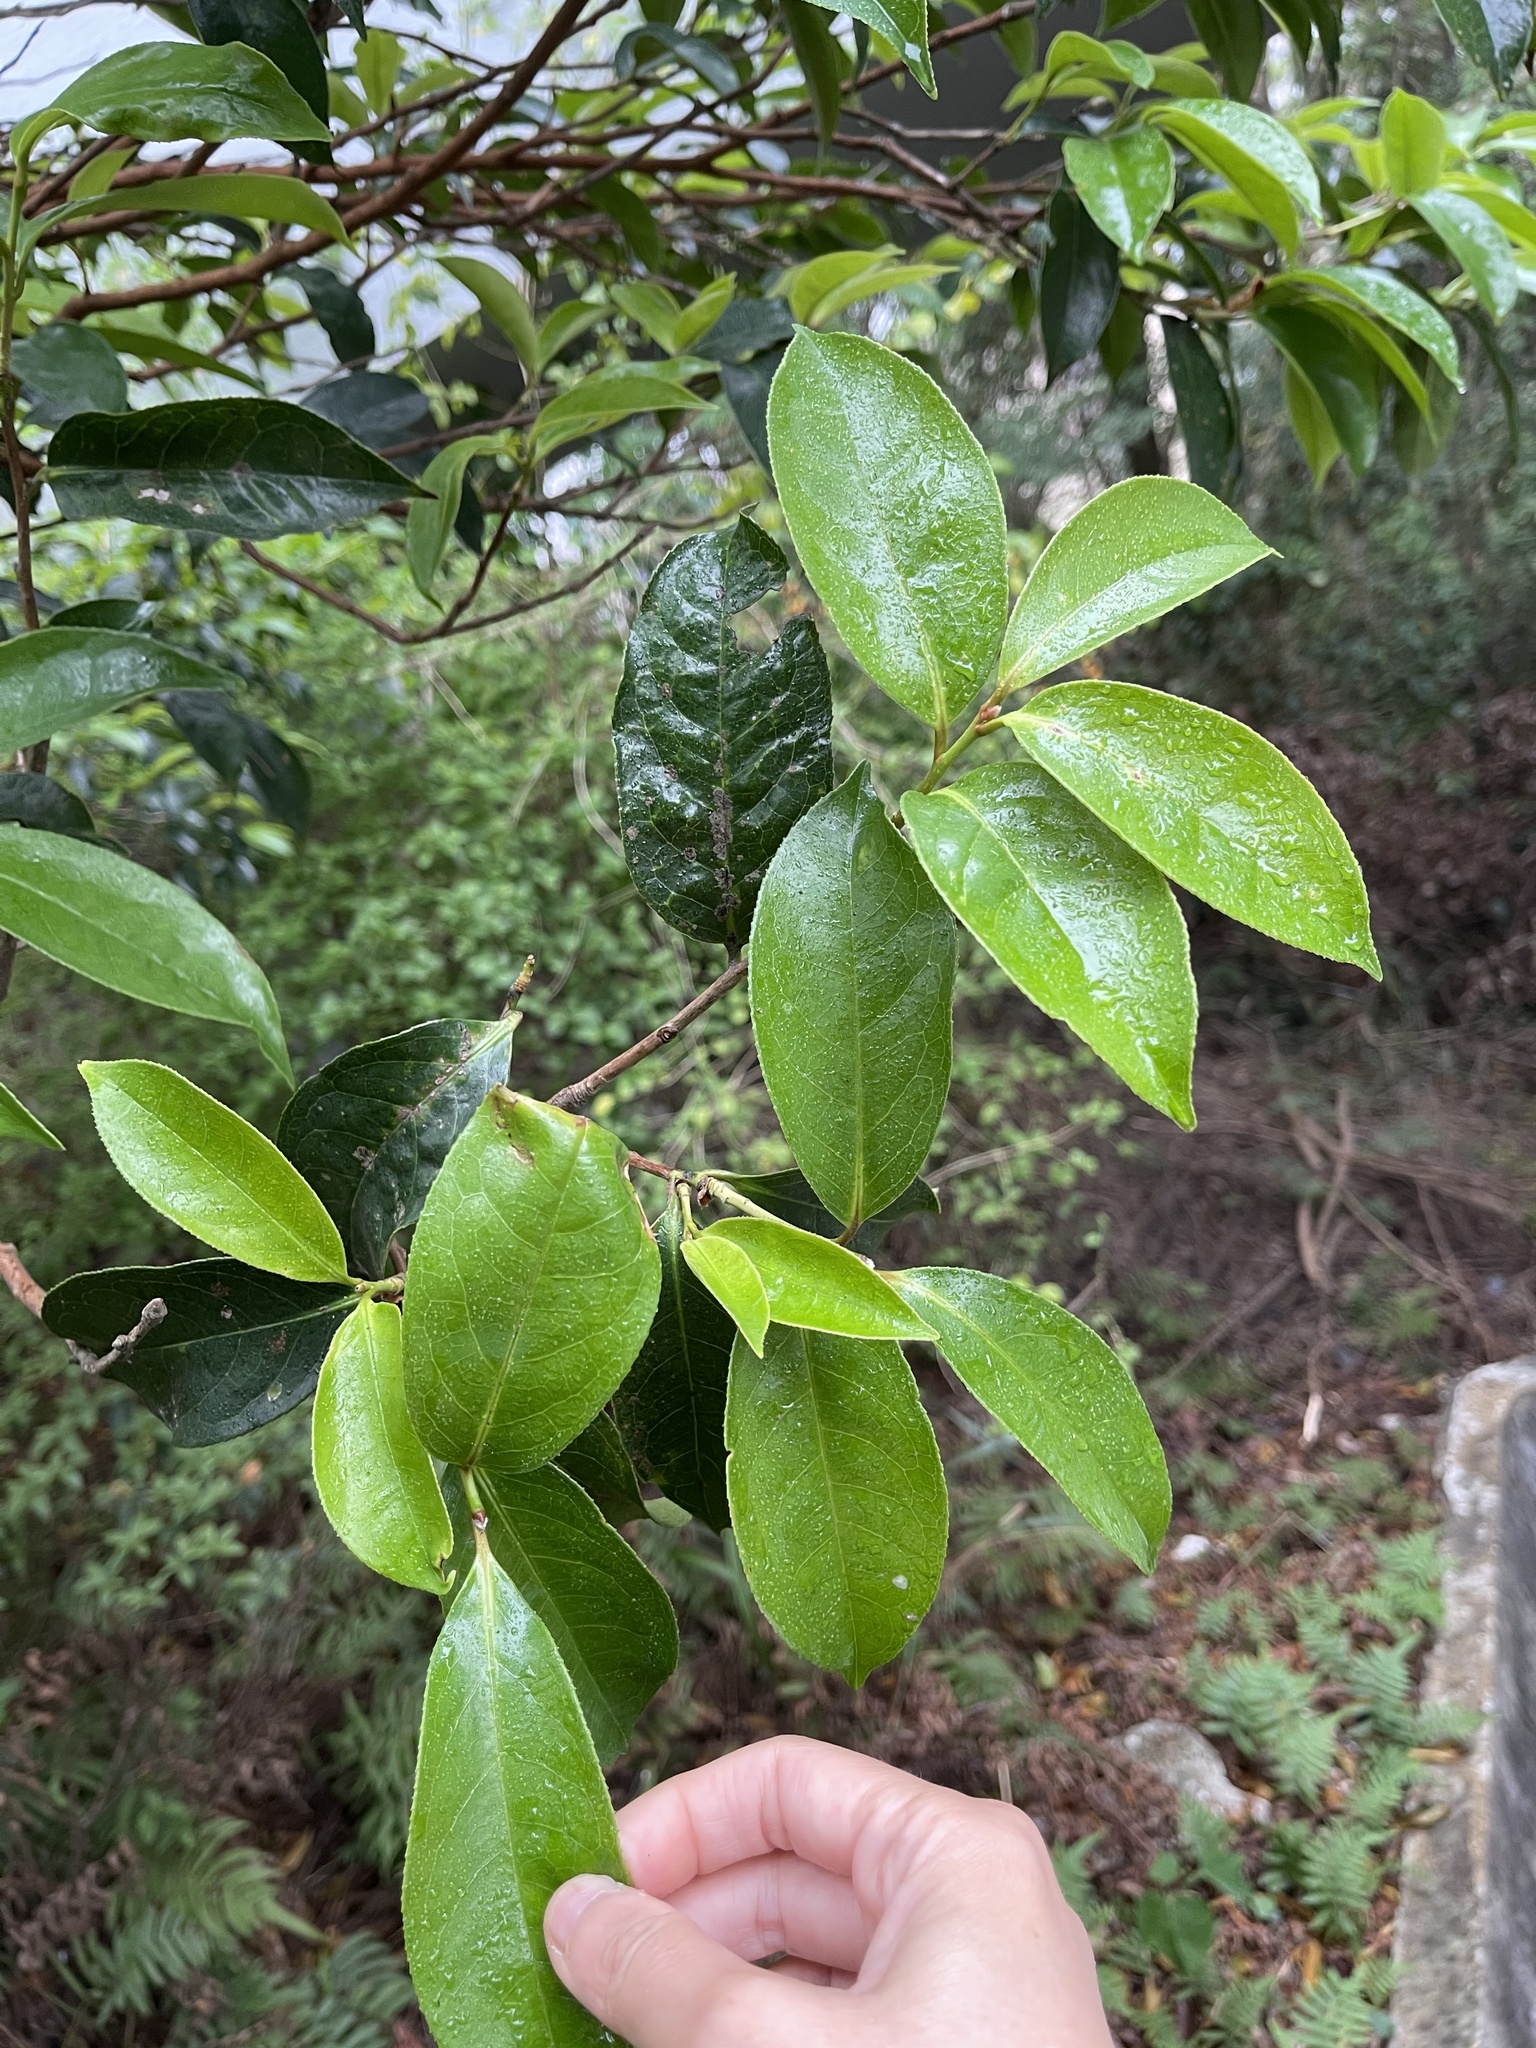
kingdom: Plantae
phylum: Tracheophyta
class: Magnoliopsida
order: Ericales
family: Theaceae
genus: Camellia
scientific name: Camellia crapnelliana
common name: Crapnell's camellia
